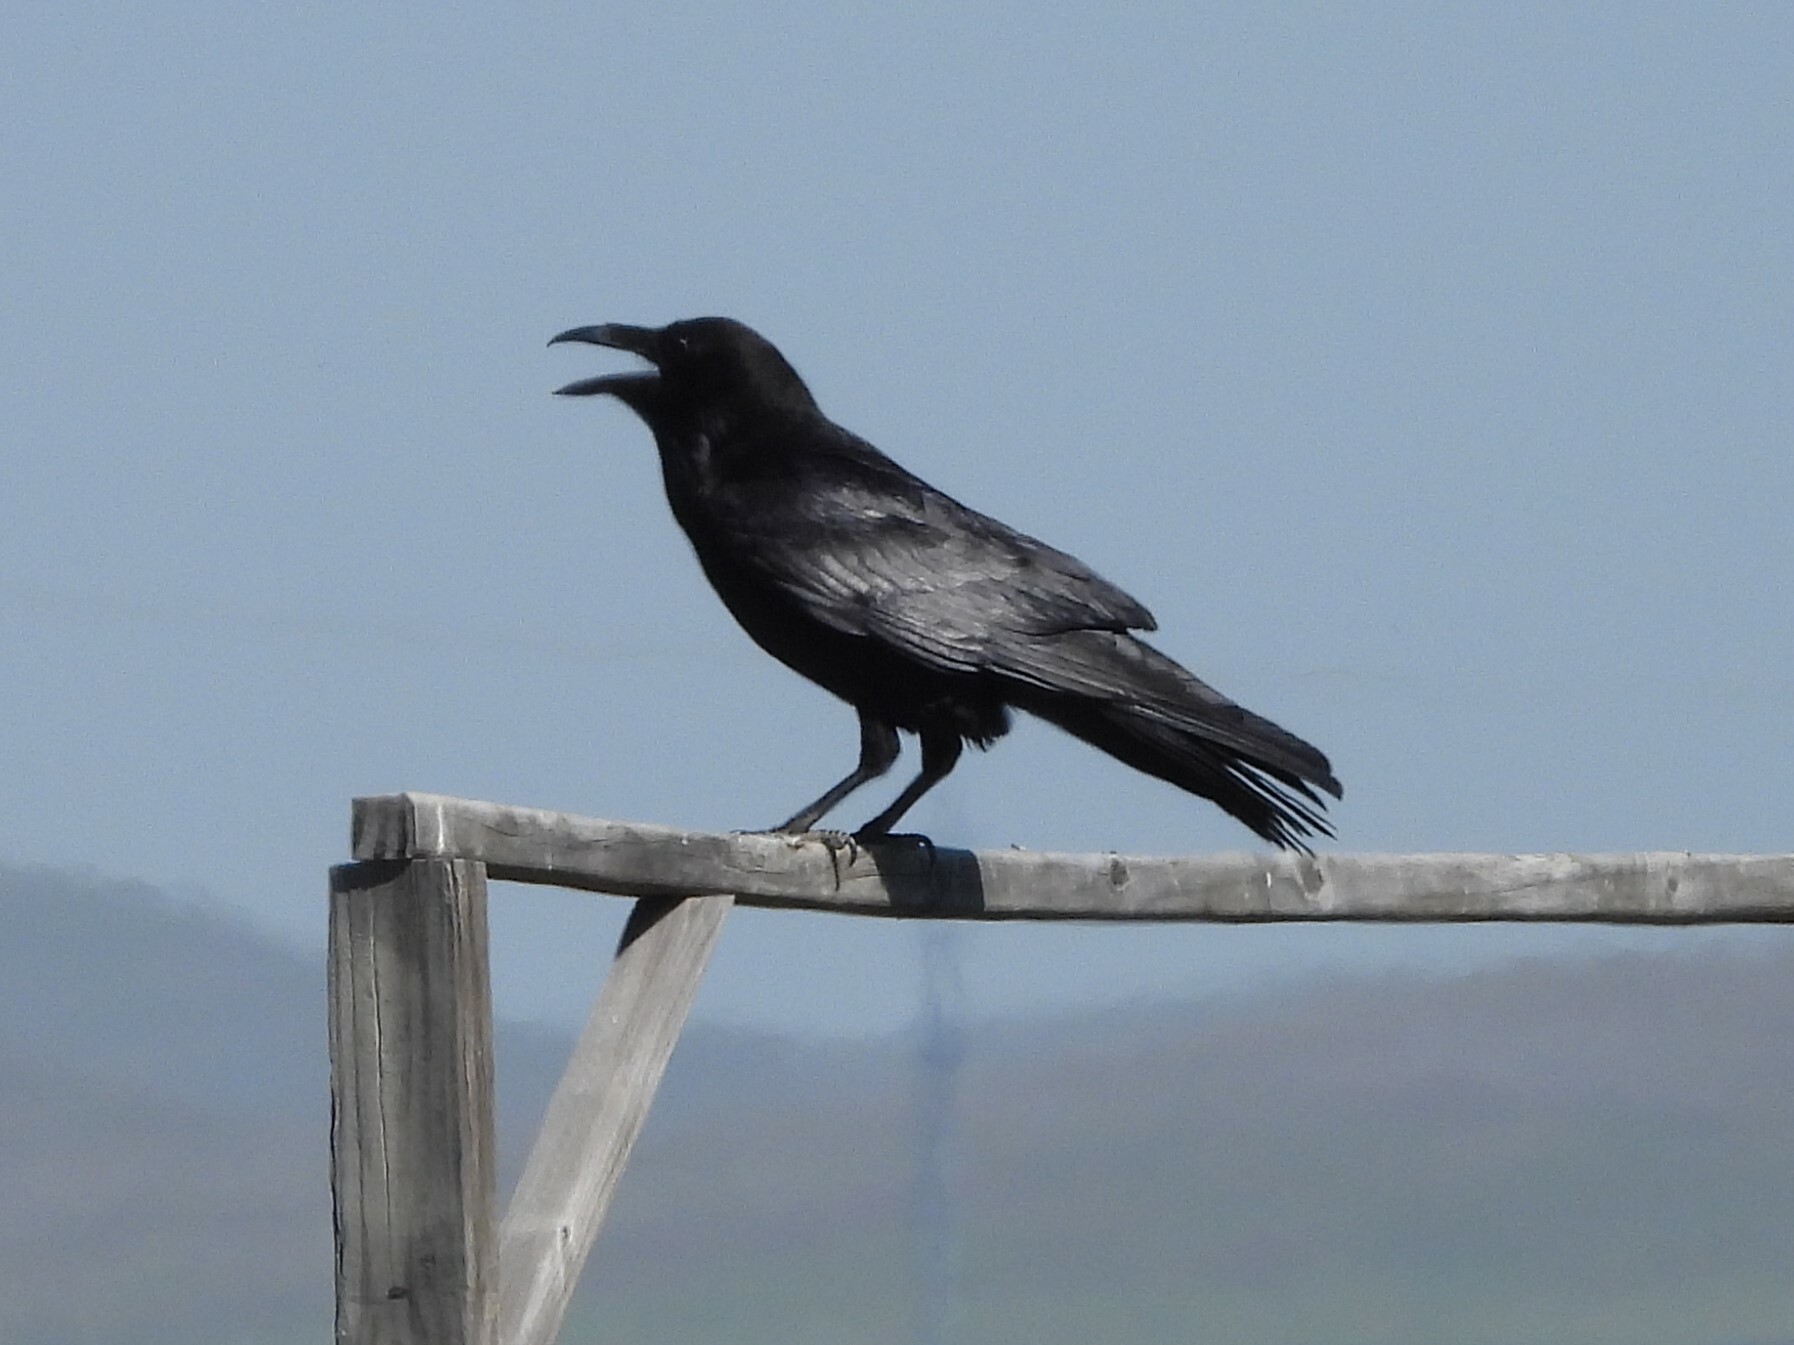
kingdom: Animalia
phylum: Chordata
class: Aves
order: Passeriformes
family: Corvidae
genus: Corvus
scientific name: Corvus corax
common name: Common raven
